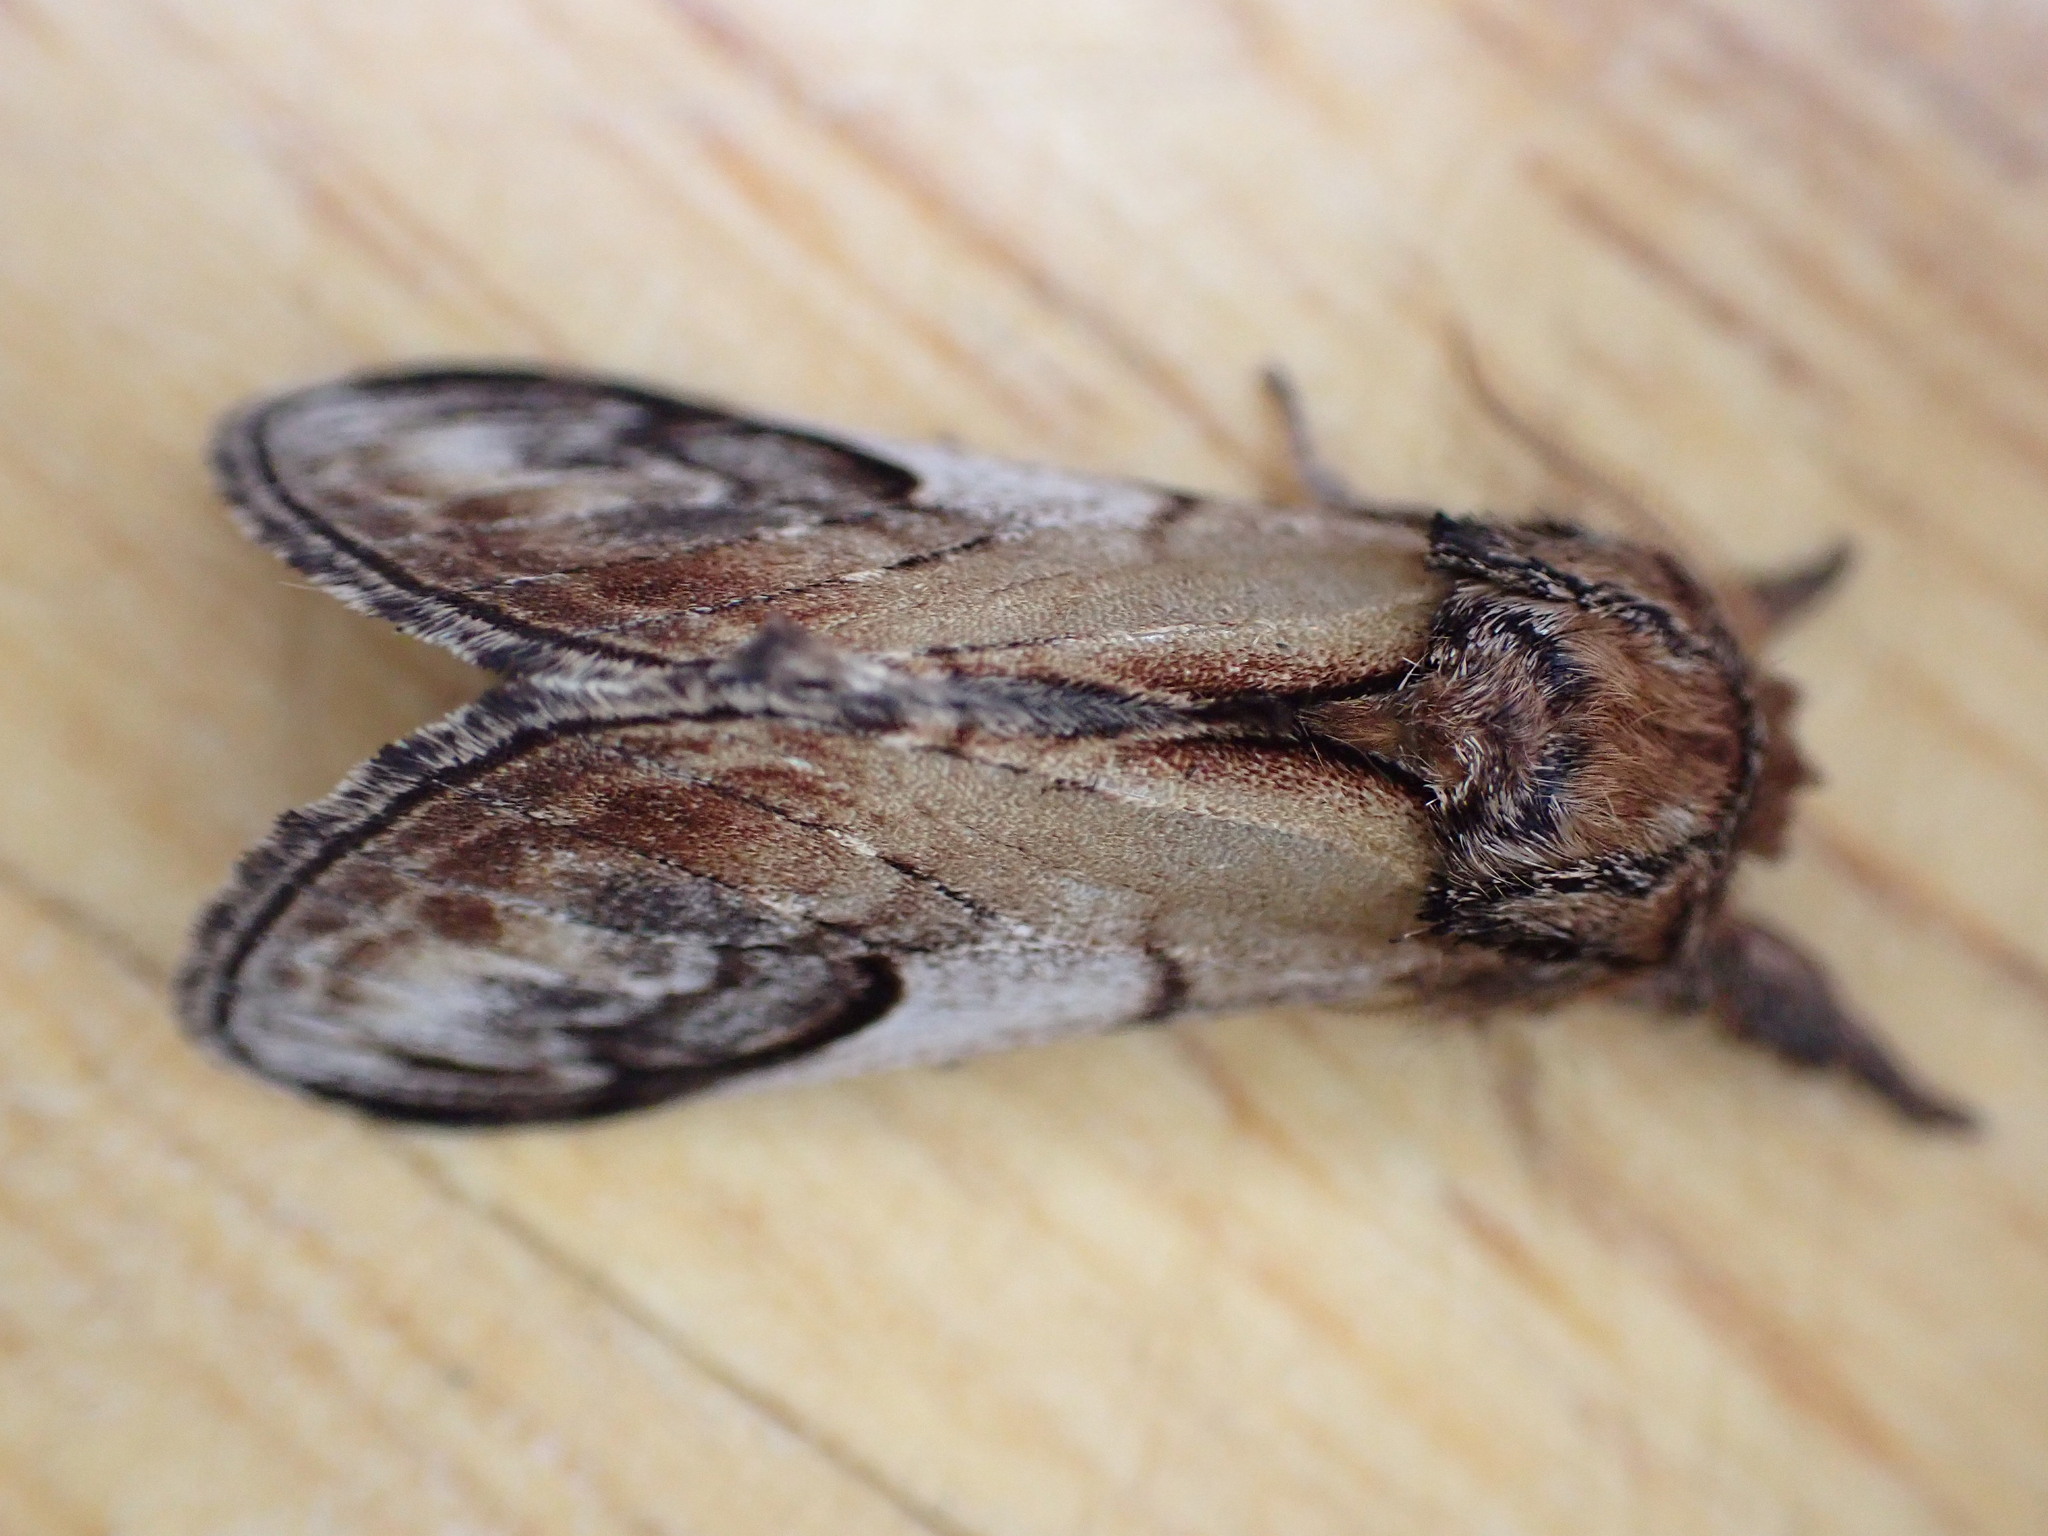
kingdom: Animalia
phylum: Arthropoda
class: Insecta
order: Lepidoptera
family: Notodontidae
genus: Notodonta
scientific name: Notodonta ziczac
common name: Pebble prominent
